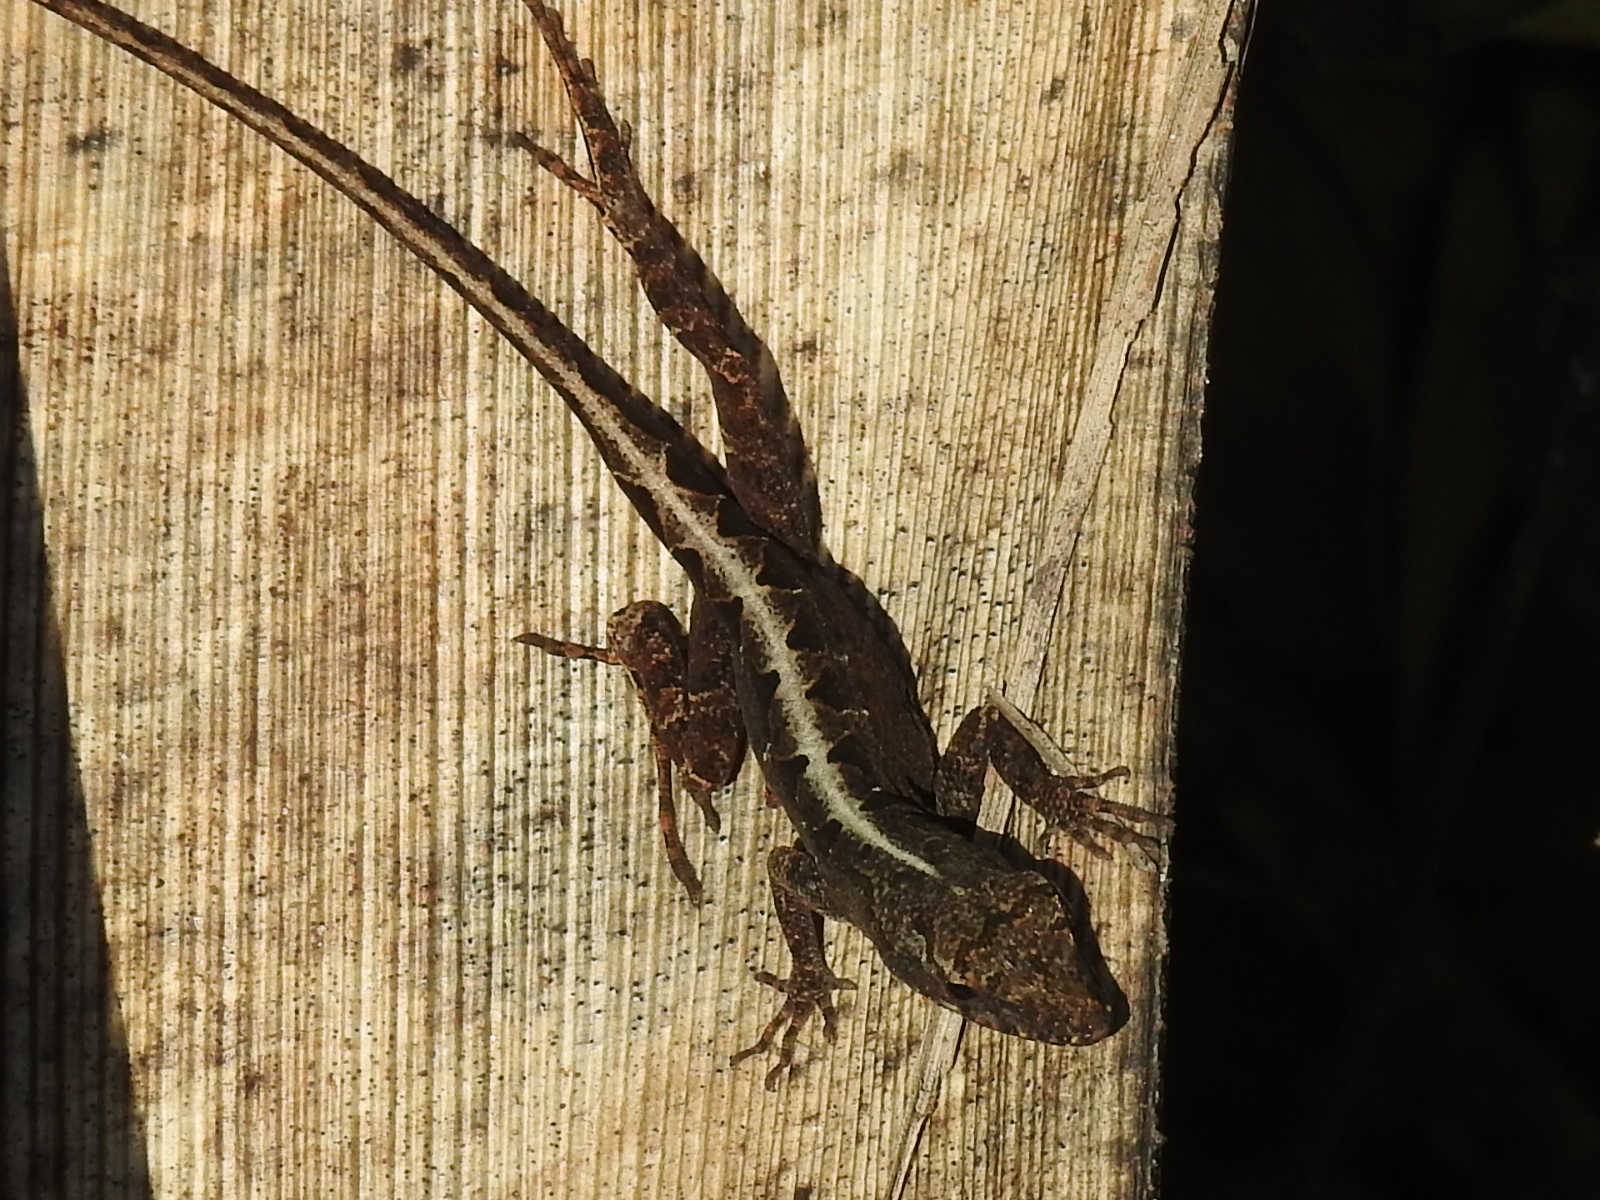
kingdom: Animalia
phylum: Chordata
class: Squamata
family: Dactyloidae
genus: Anolis
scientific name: Anolis sagrei
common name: Brown anole
